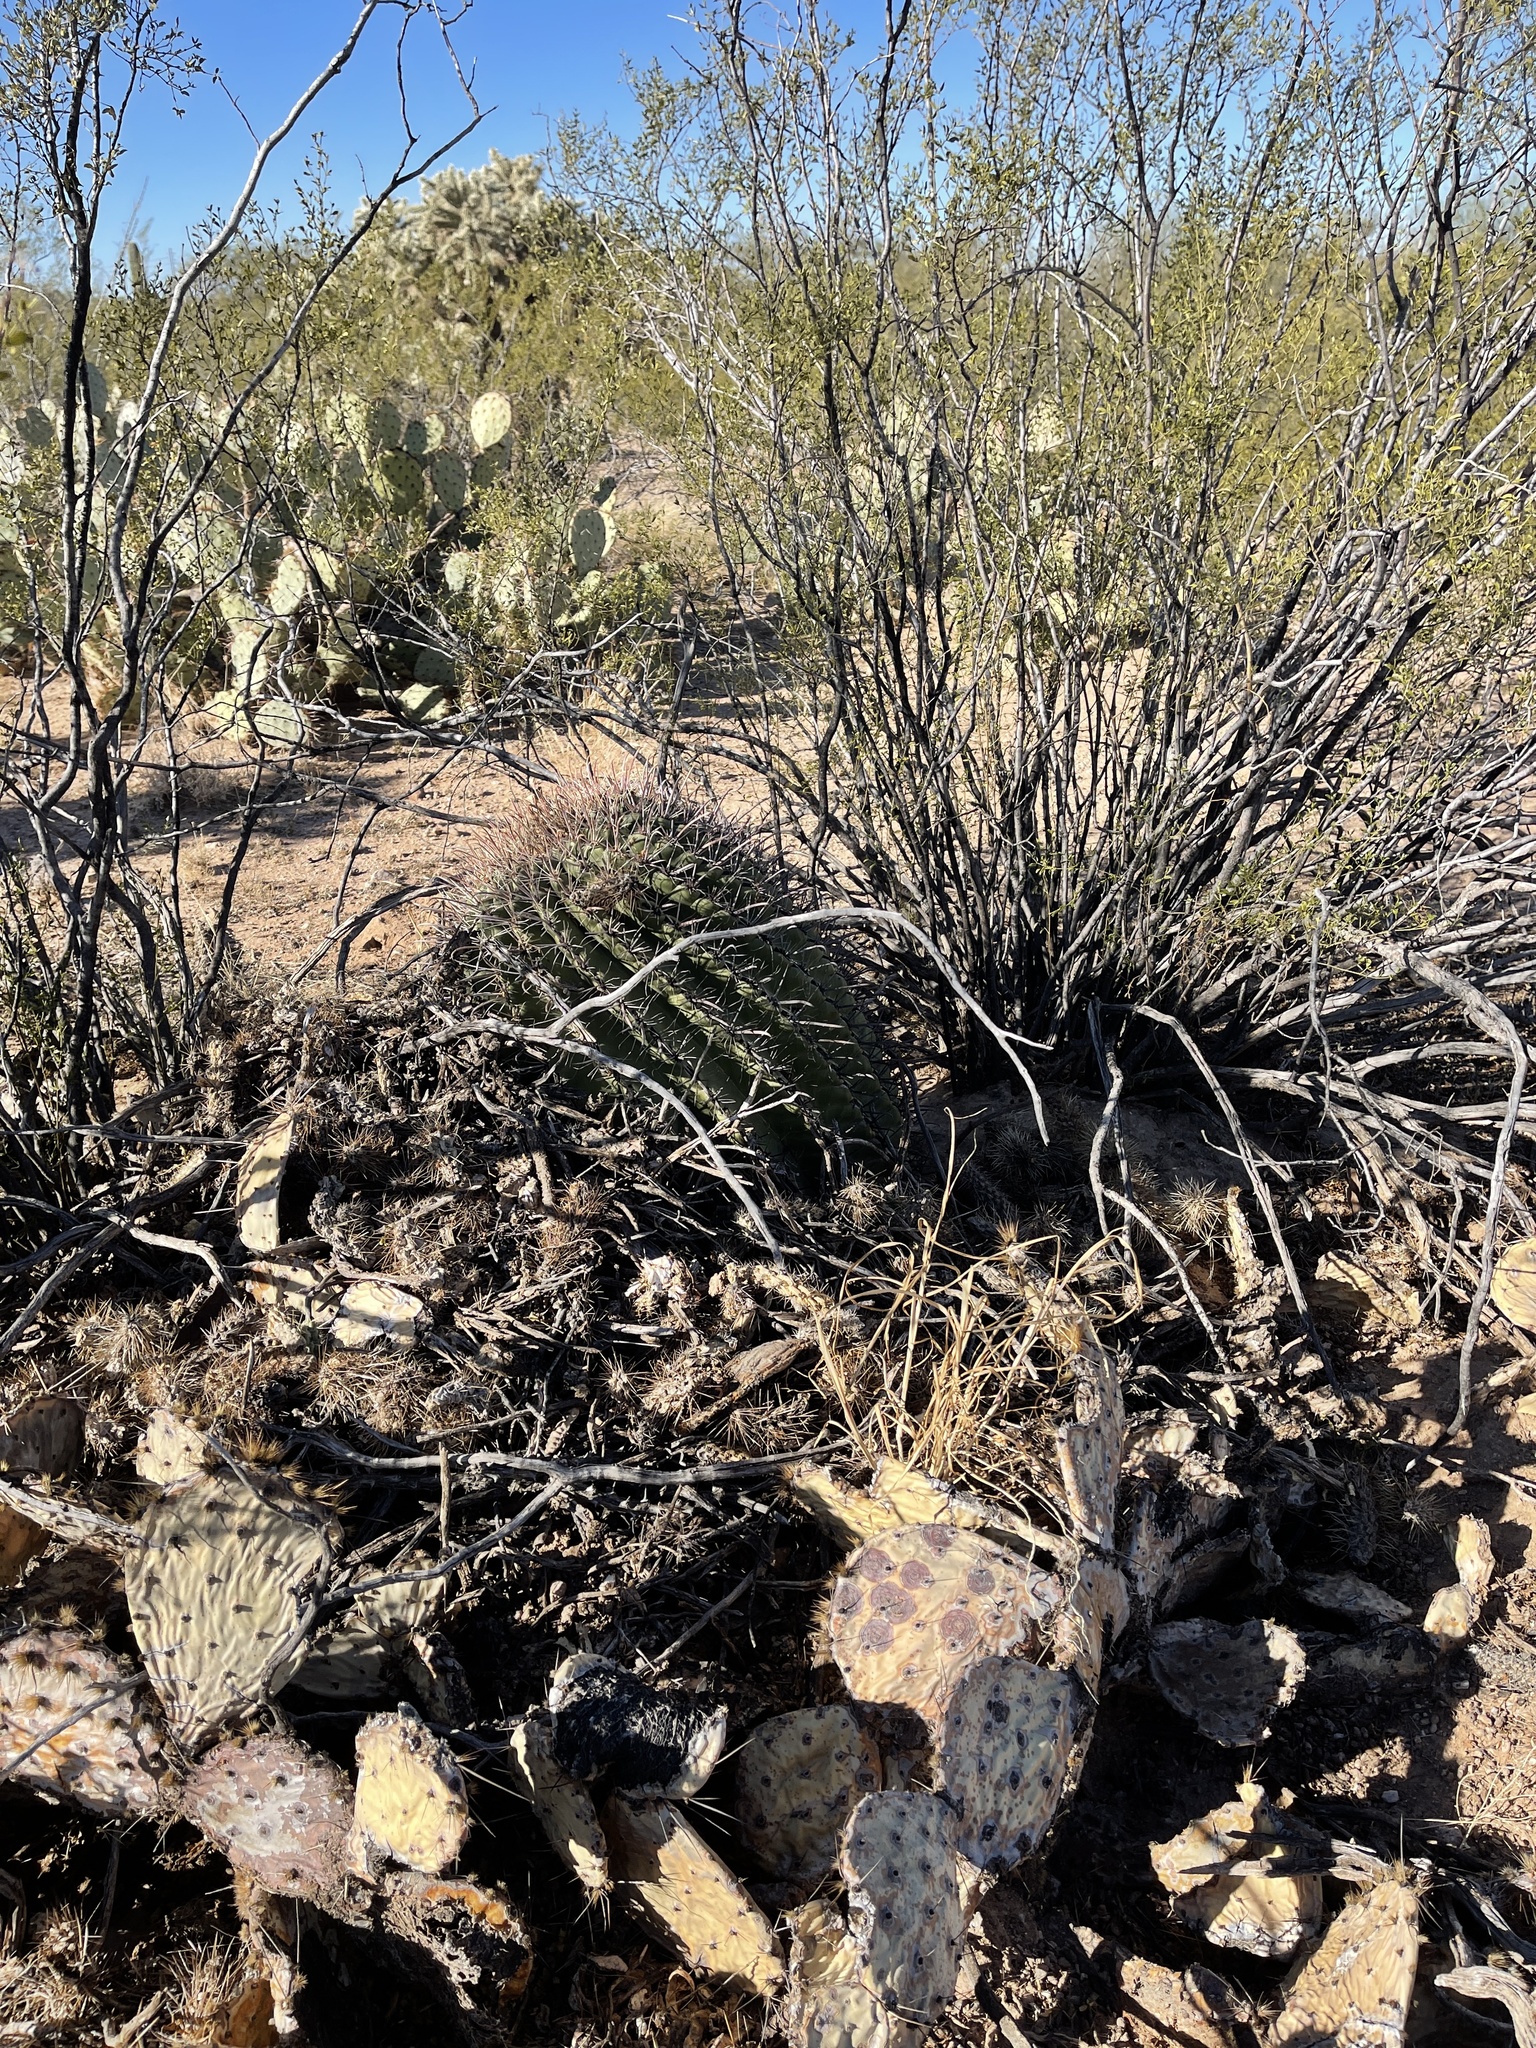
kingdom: Plantae
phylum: Tracheophyta
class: Magnoliopsida
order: Caryophyllales
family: Cactaceae
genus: Ferocactus
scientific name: Ferocactus wislizeni
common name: Candy barrel cactus
